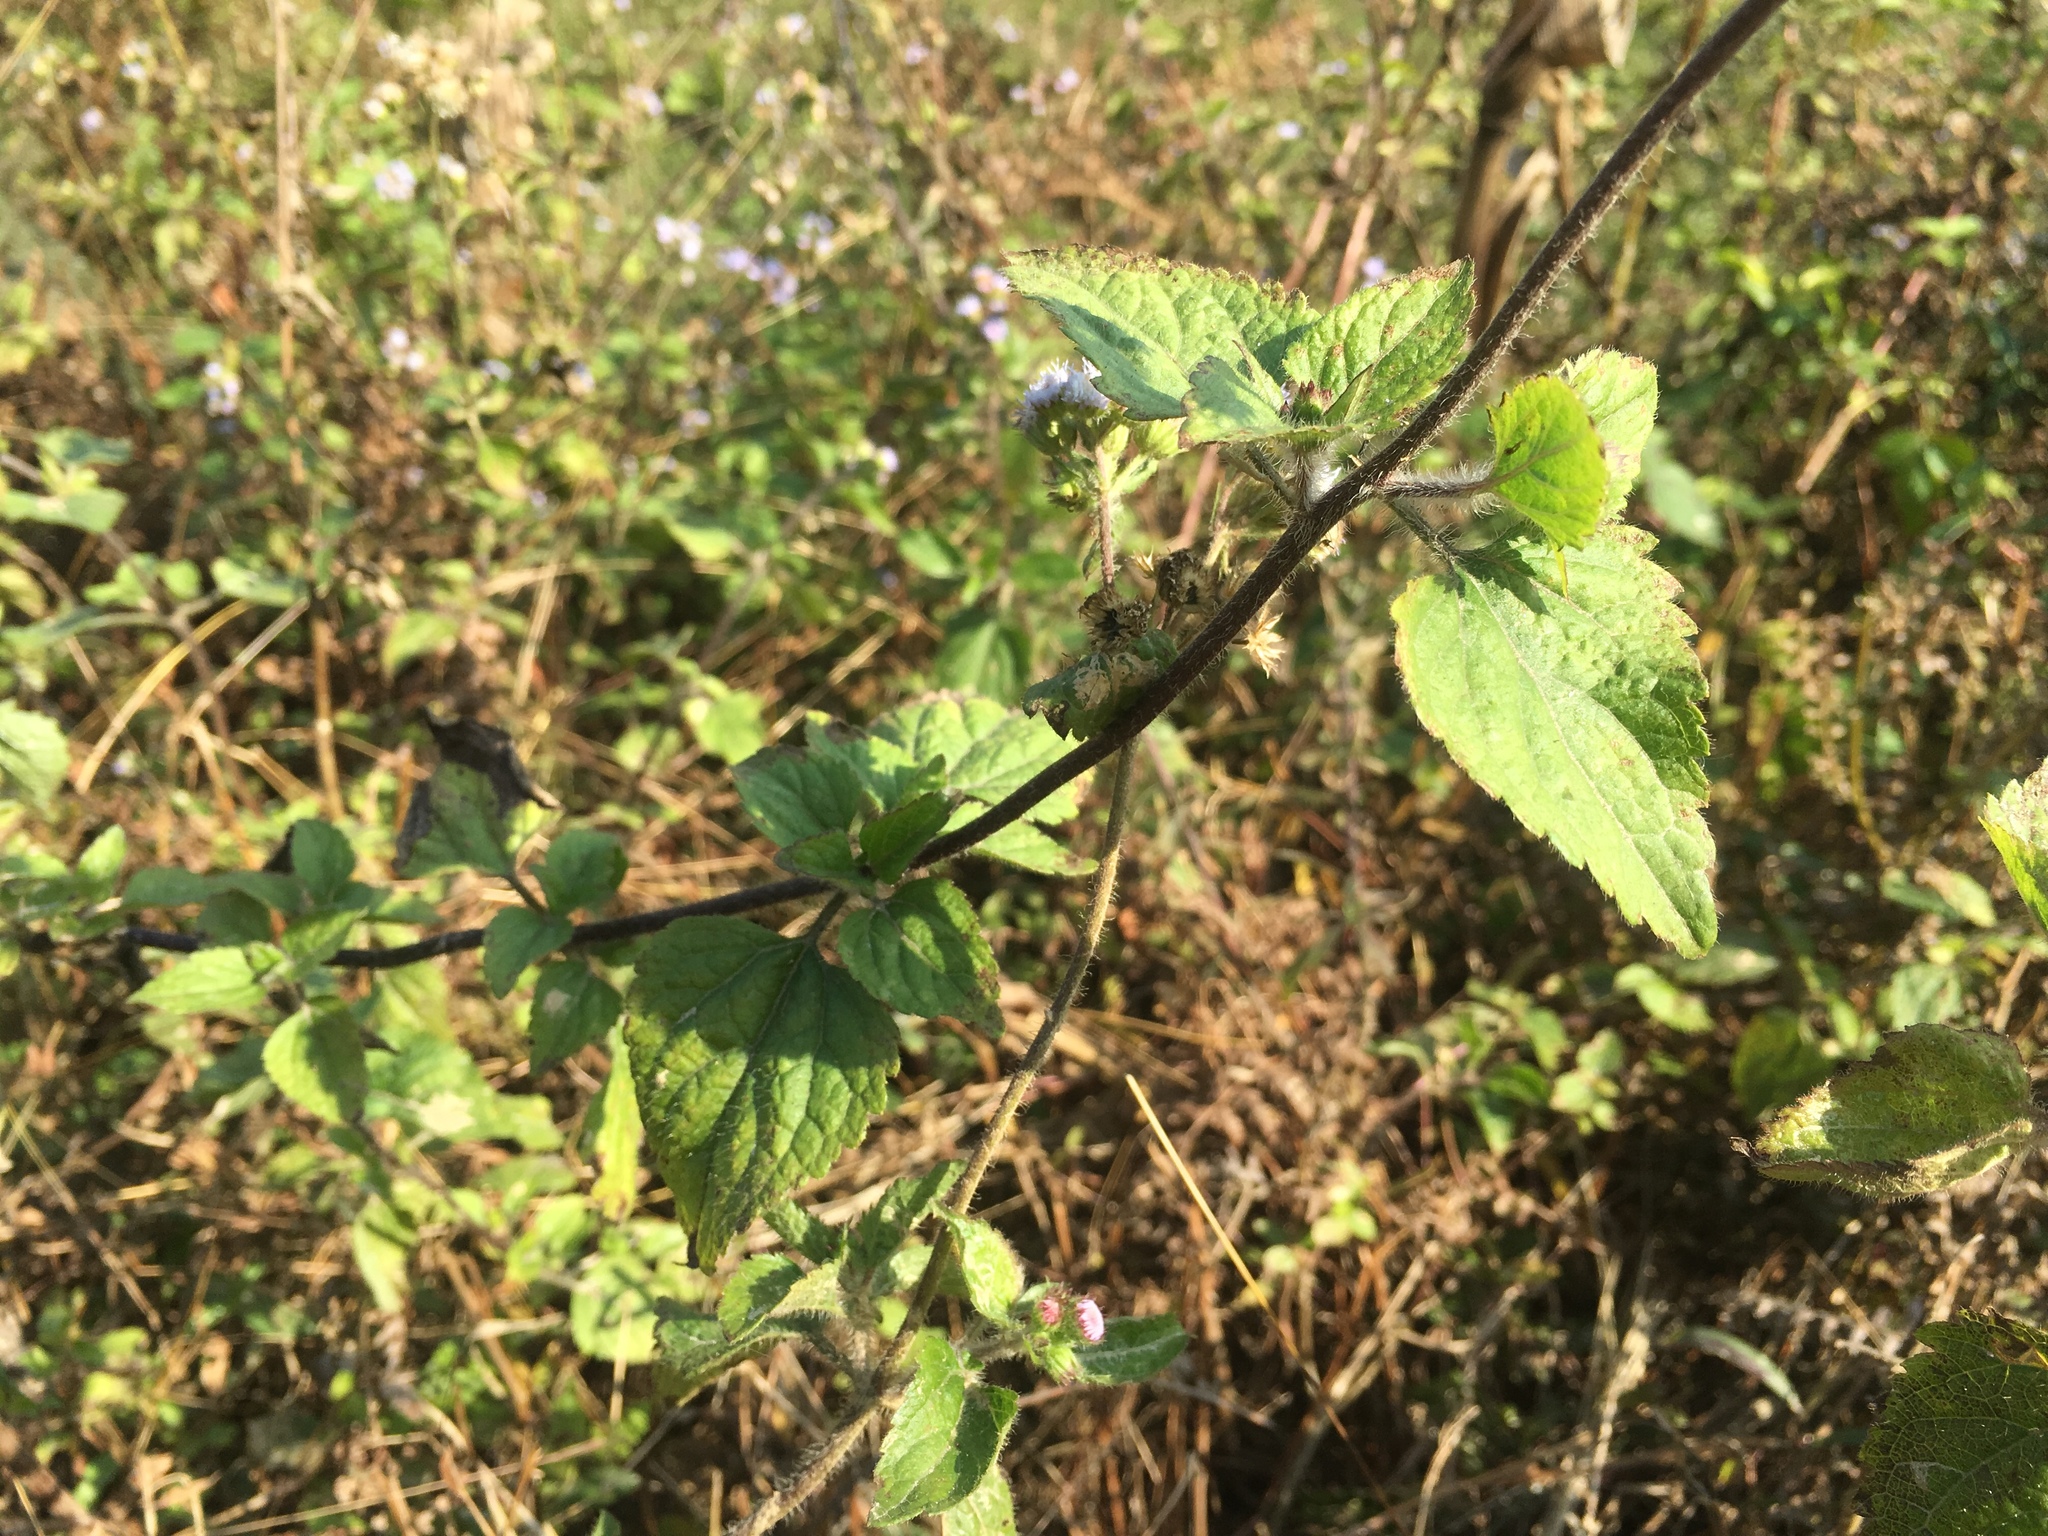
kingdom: Plantae
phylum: Tracheophyta
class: Magnoliopsida
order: Asterales
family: Asteraceae
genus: Ageratum
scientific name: Ageratum conyzoides
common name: Tropical whiteweed
